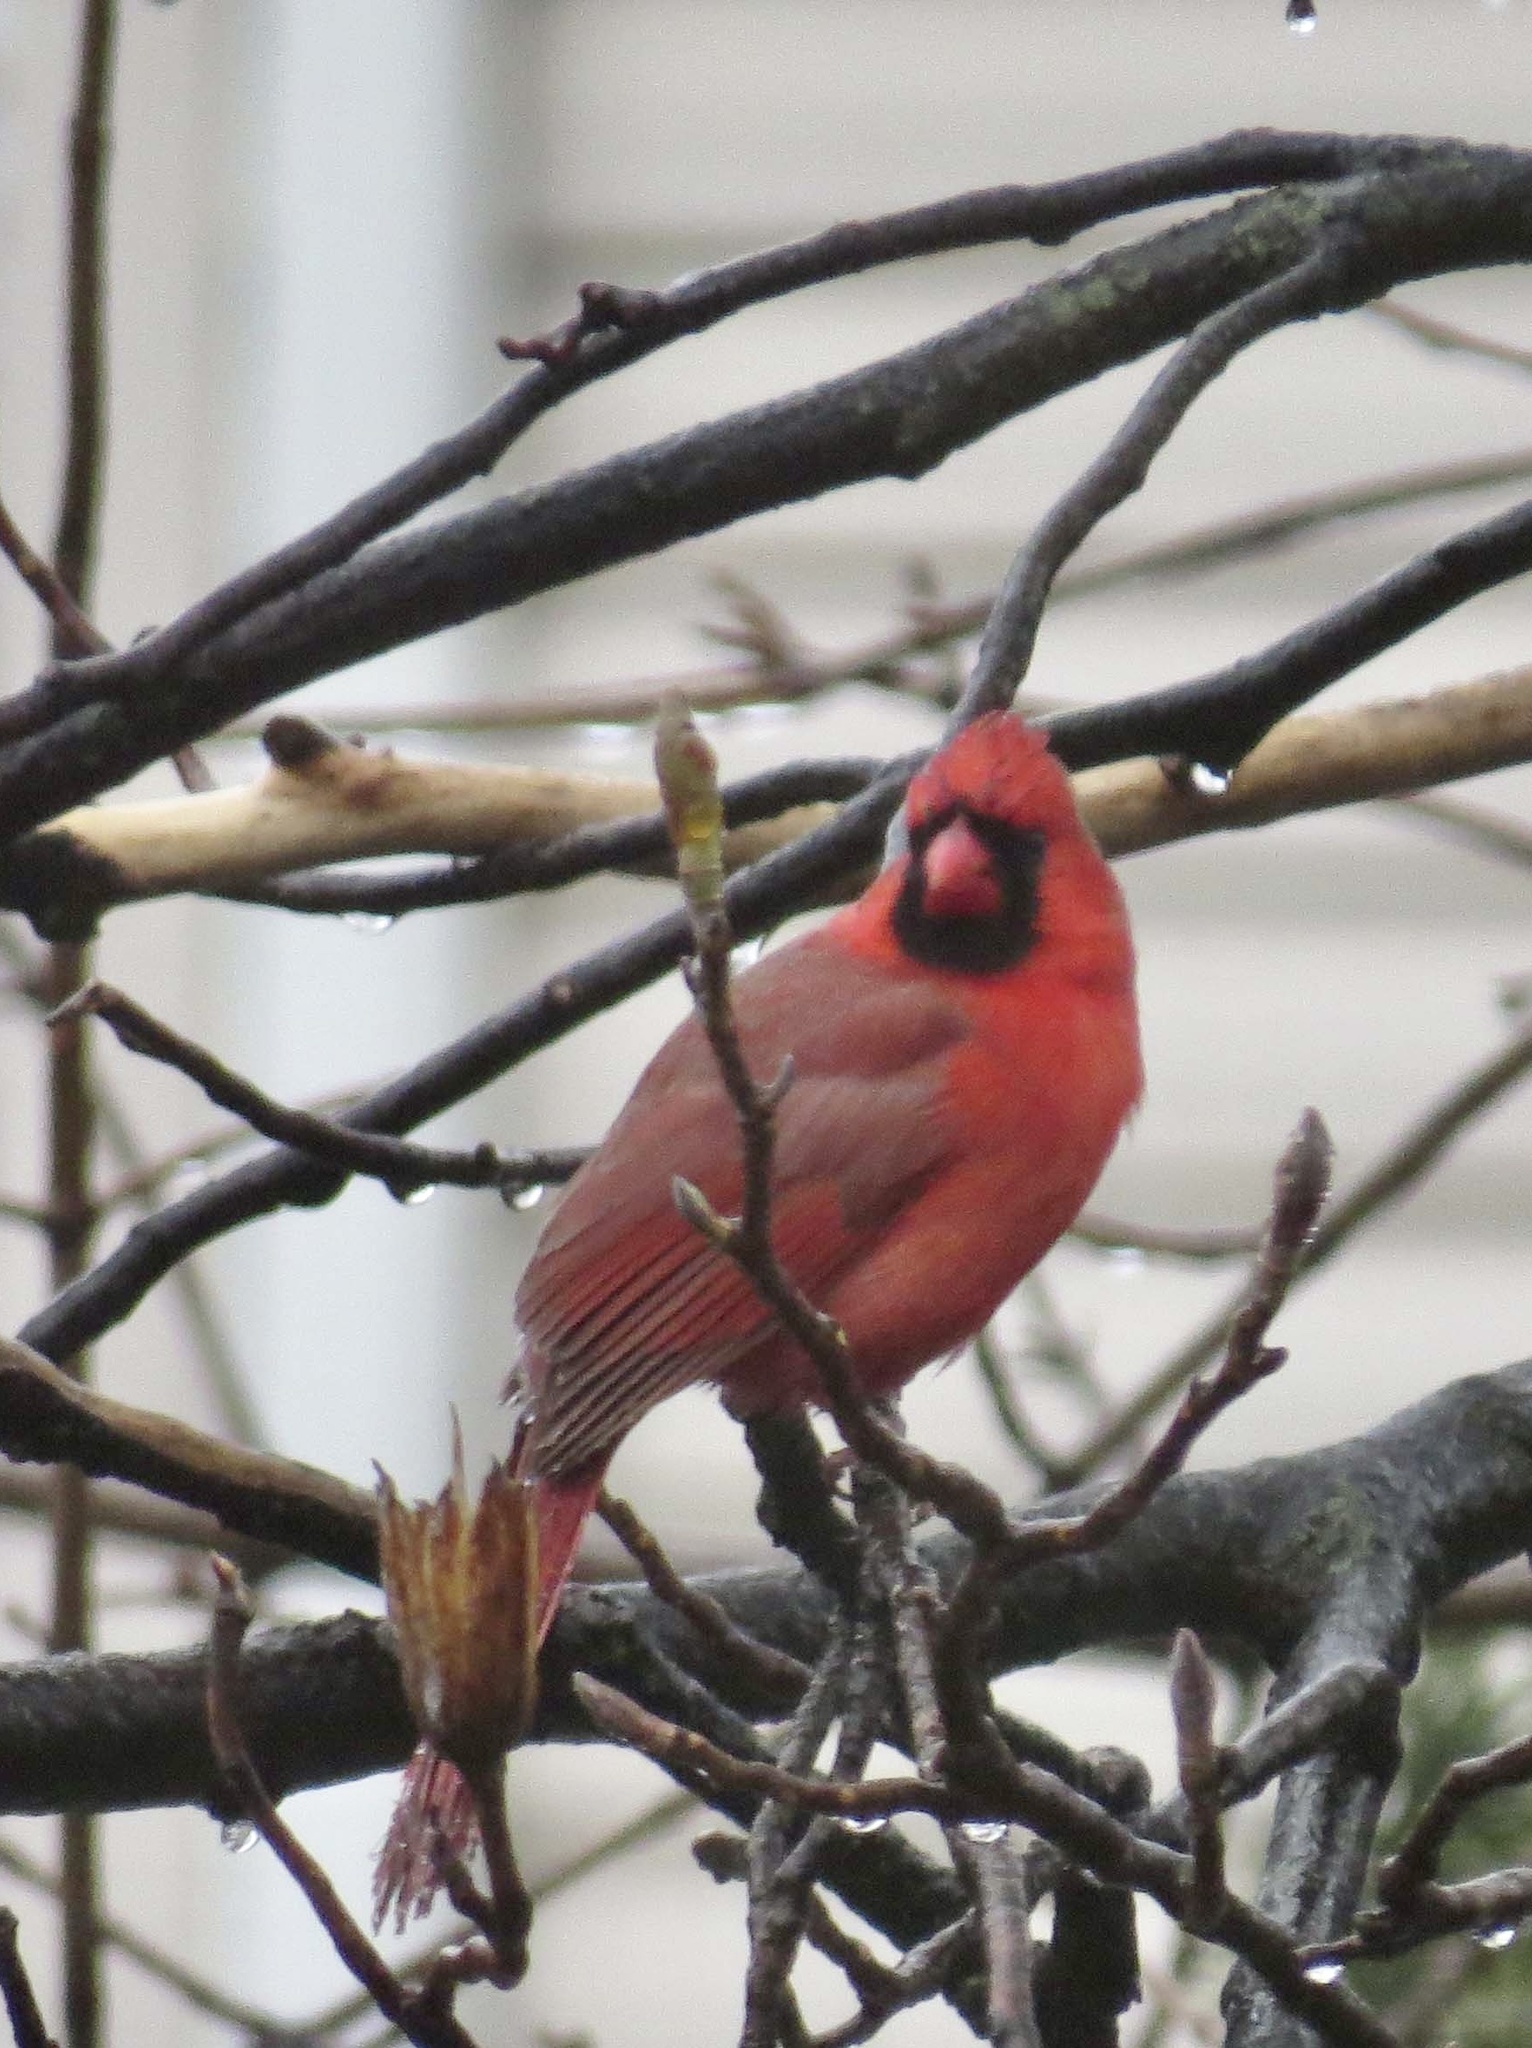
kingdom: Animalia
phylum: Chordata
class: Aves
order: Passeriformes
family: Cardinalidae
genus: Cardinalis
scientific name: Cardinalis cardinalis
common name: Northern cardinal
